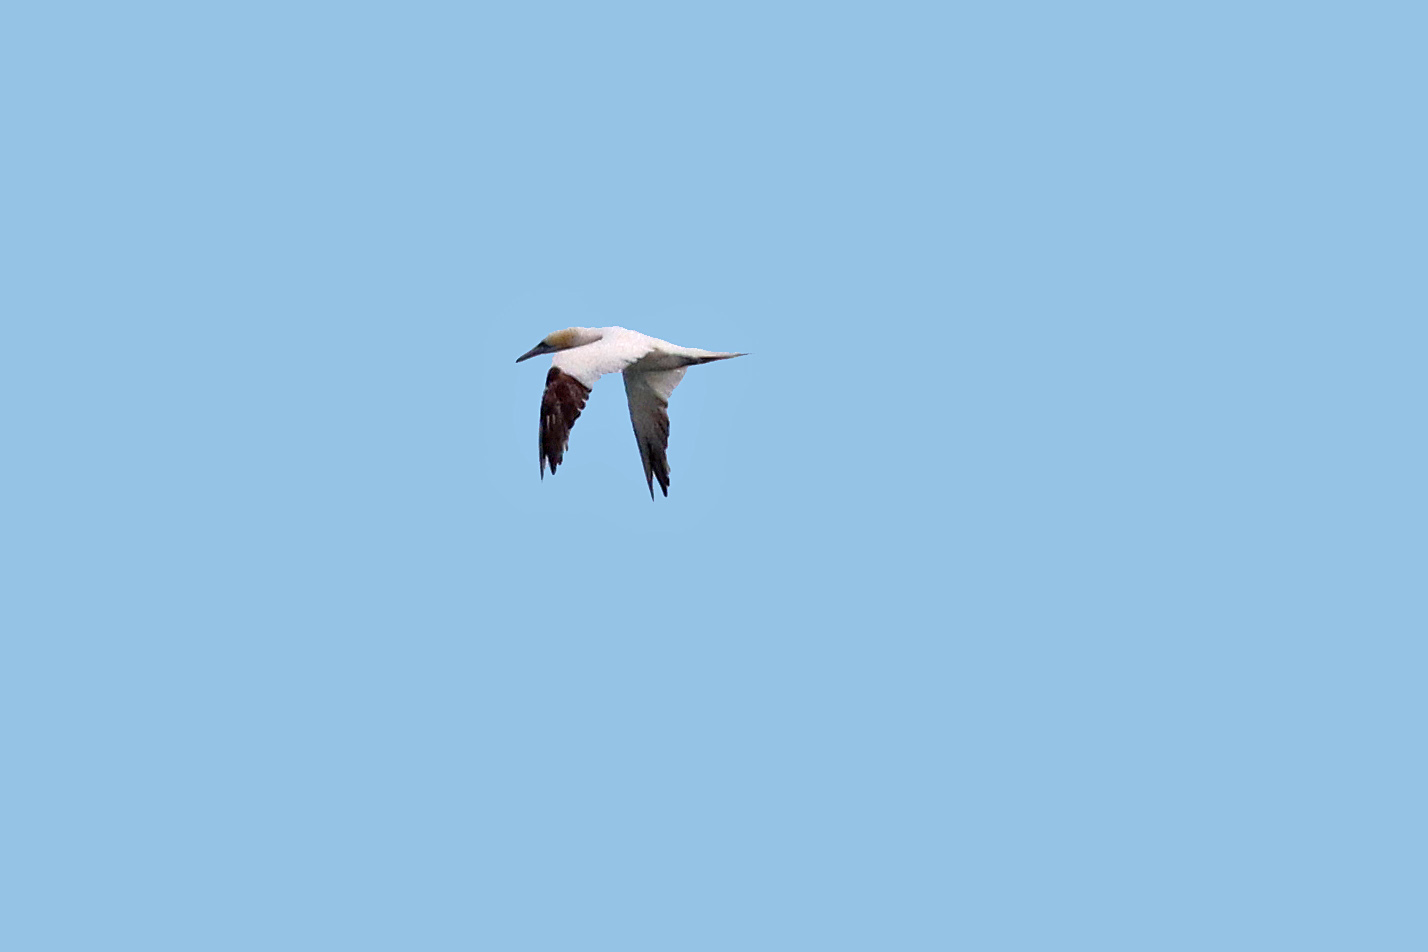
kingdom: Animalia
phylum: Chordata
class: Aves
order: Suliformes
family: Sulidae
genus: Morus
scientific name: Morus bassanus
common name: Northern gannet
